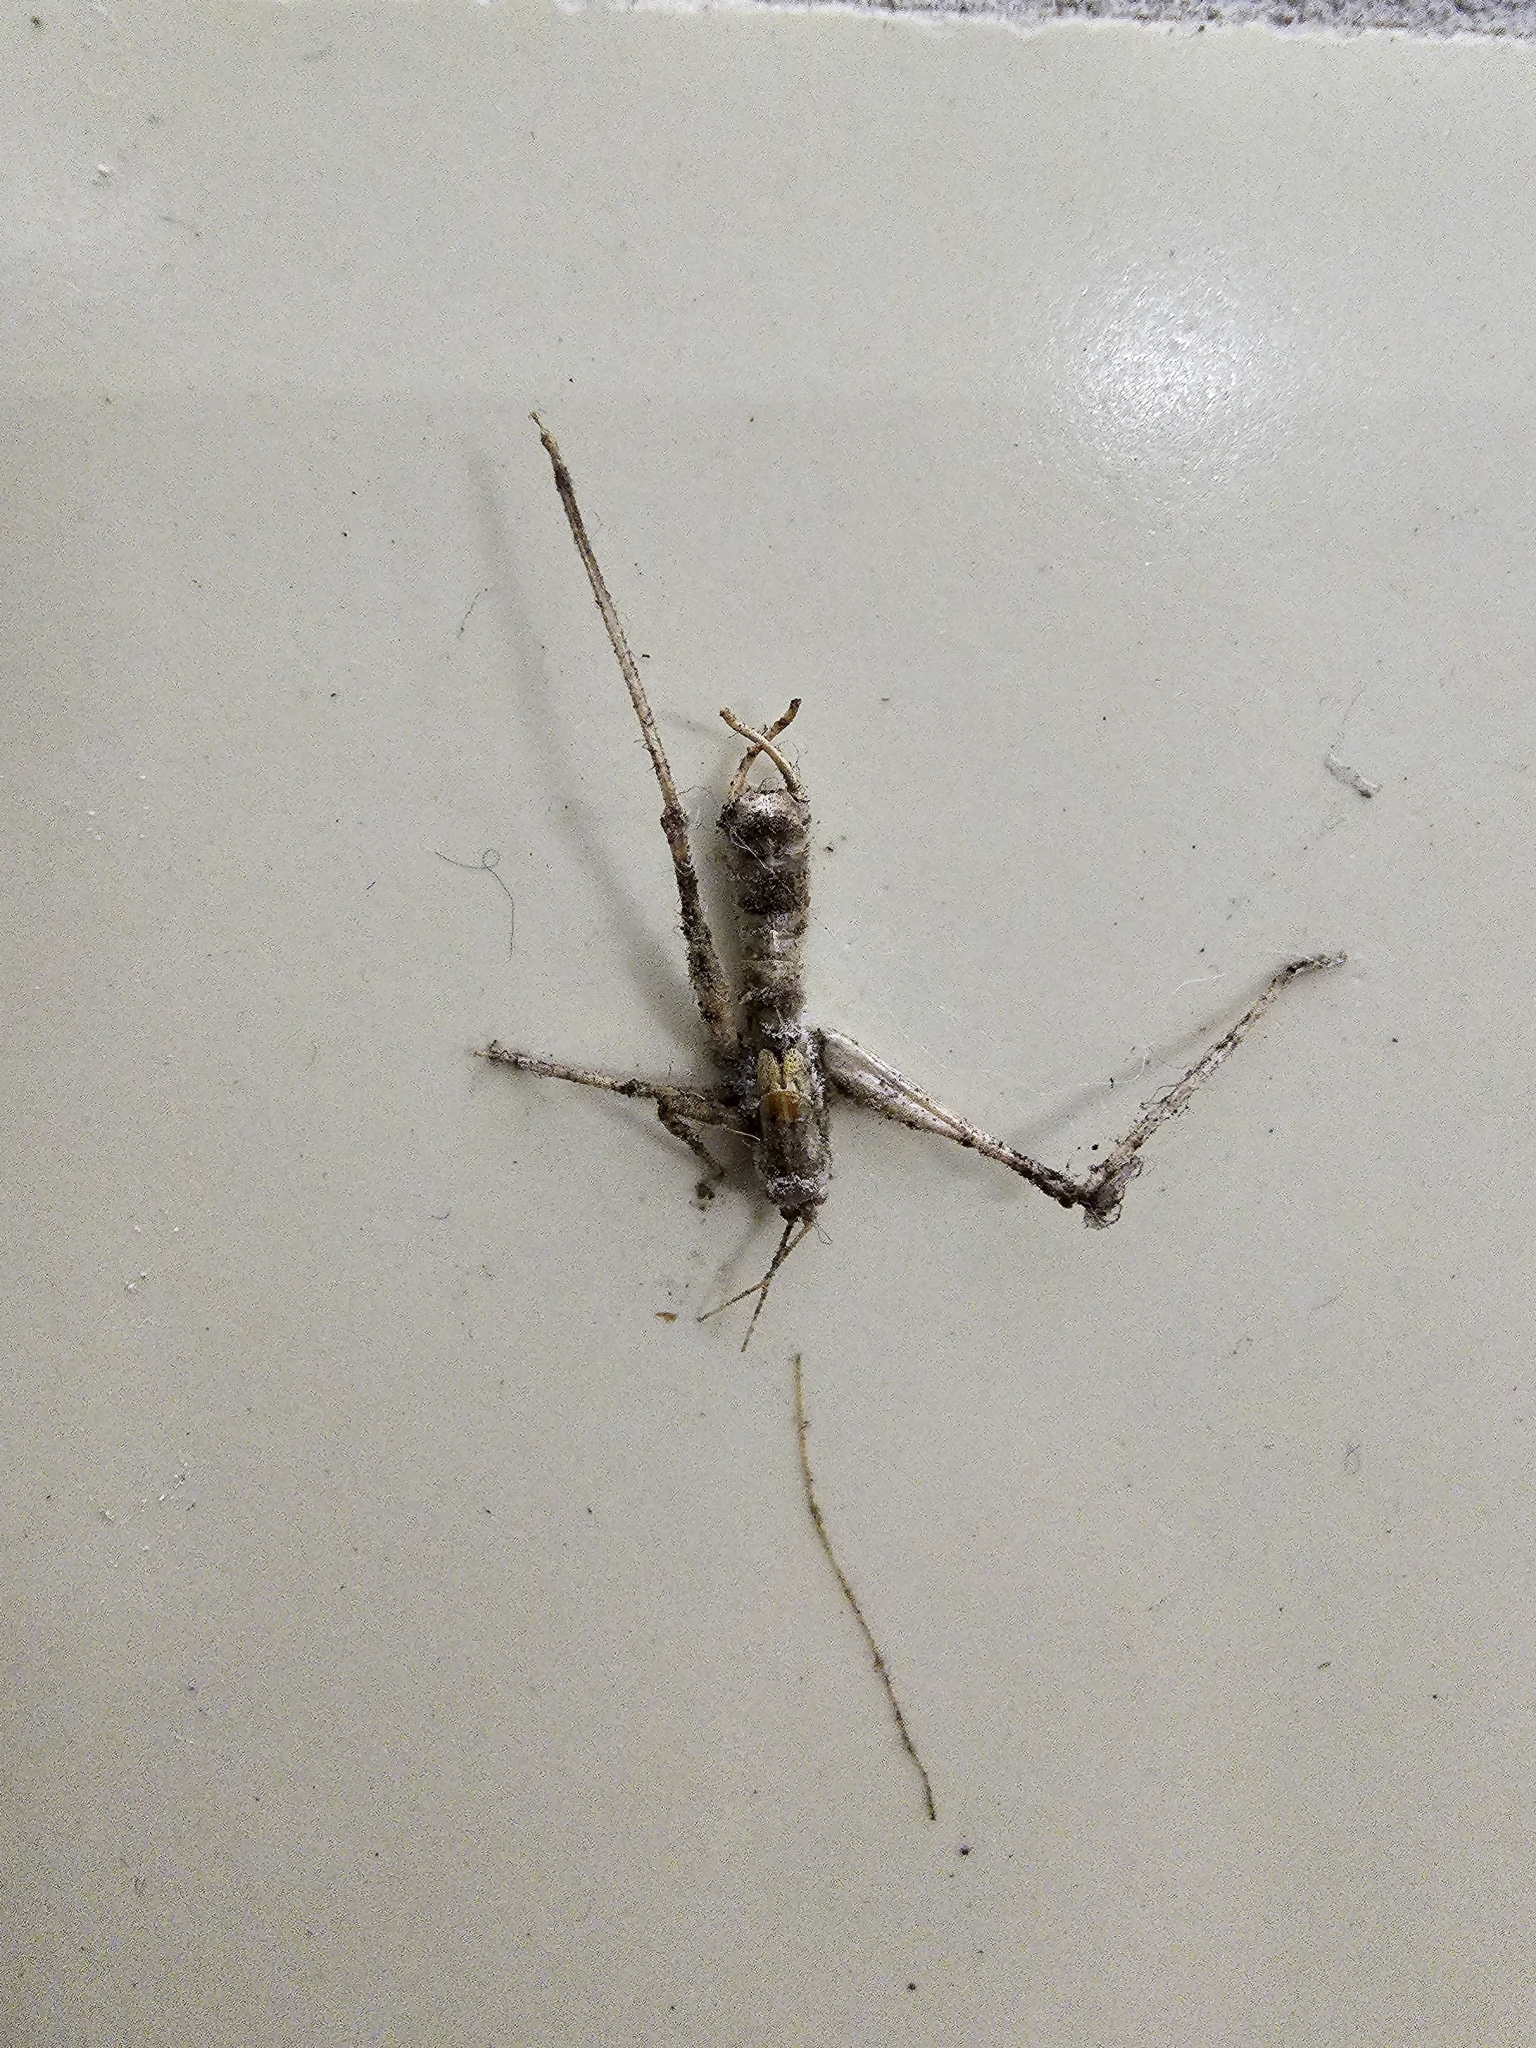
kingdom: Animalia
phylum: Arthropoda
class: Insecta
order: Orthoptera
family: Tettigoniidae
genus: Meconema
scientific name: Meconema meridionale
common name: Southern oak bush-cricket
